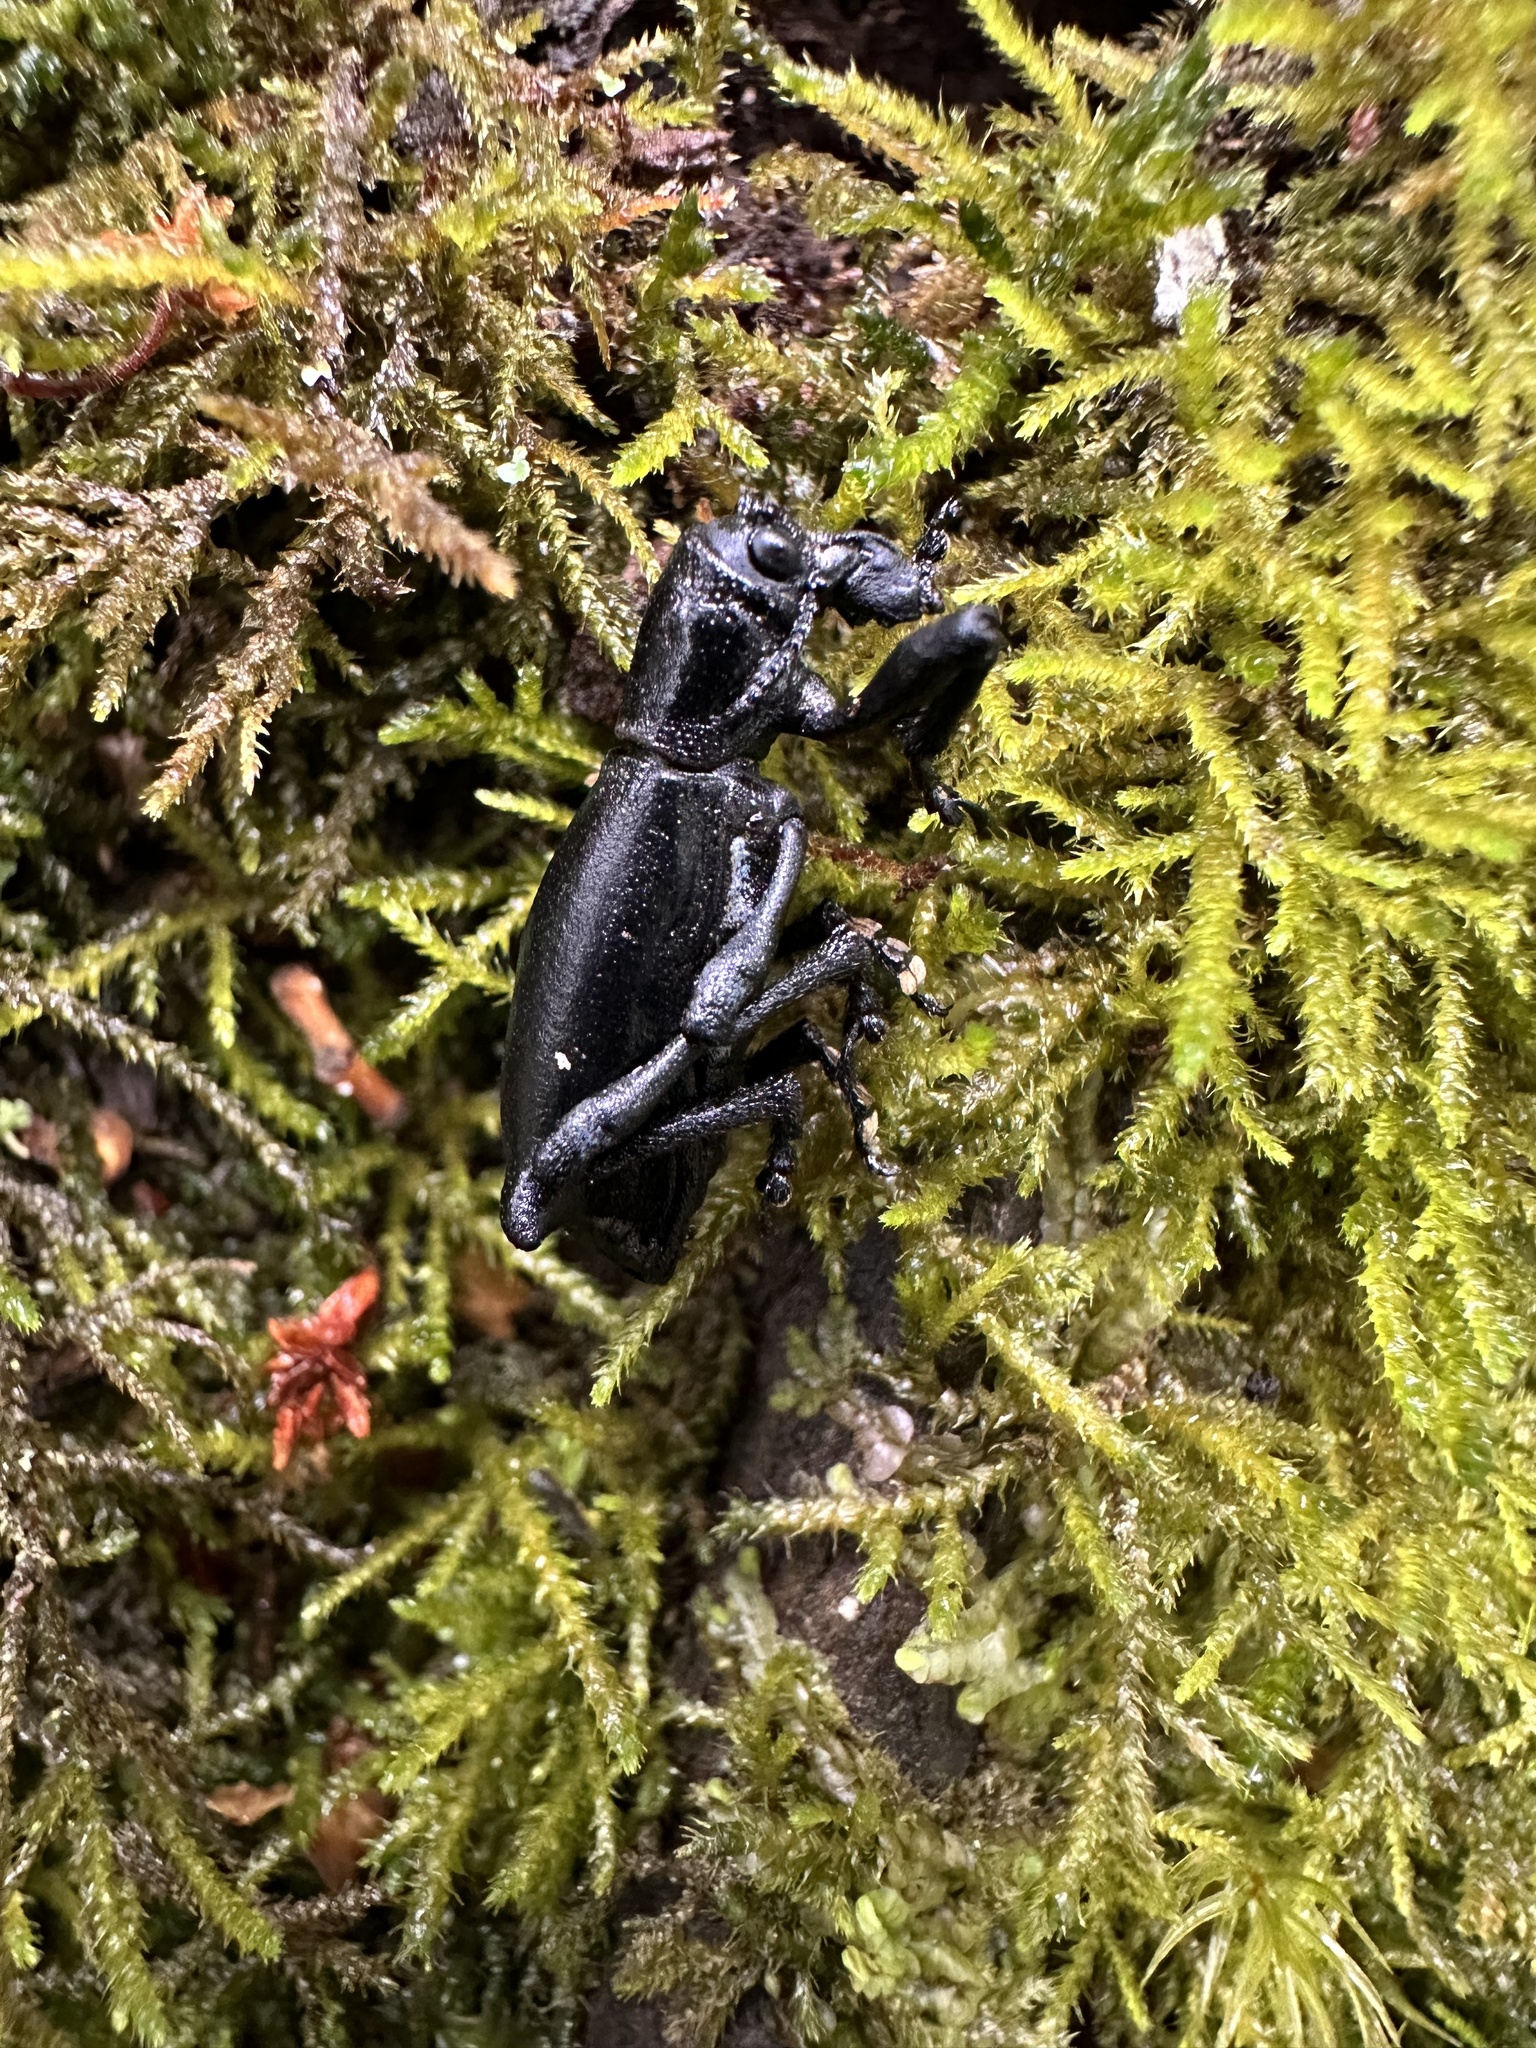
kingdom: Animalia
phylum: Arthropoda
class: Insecta
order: Coleoptera
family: Curculionidae
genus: Aegorhinus
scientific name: Aegorhinus
